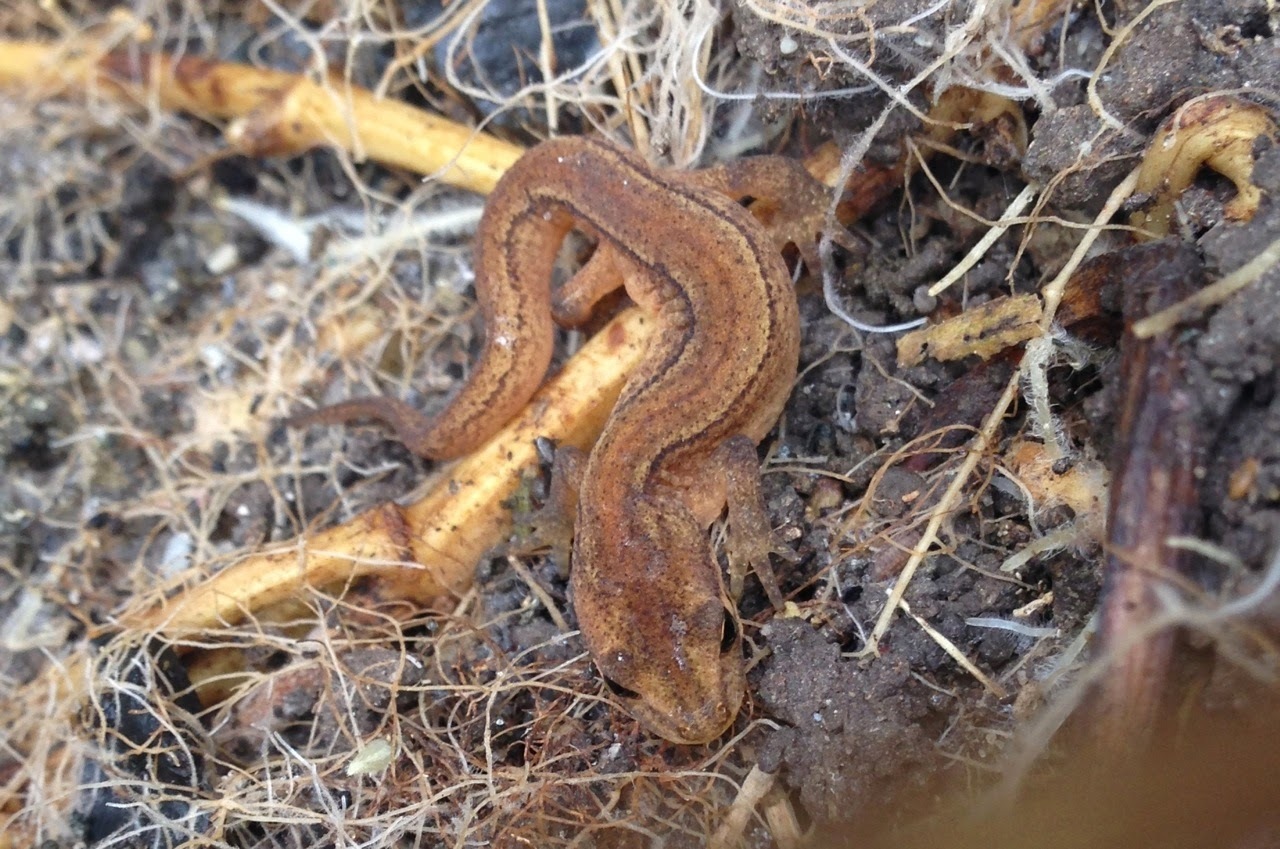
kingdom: Animalia
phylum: Chordata
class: Amphibia
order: Caudata
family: Salamandridae
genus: Lissotriton
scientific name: Lissotriton vulgaris
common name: Smooth newt
